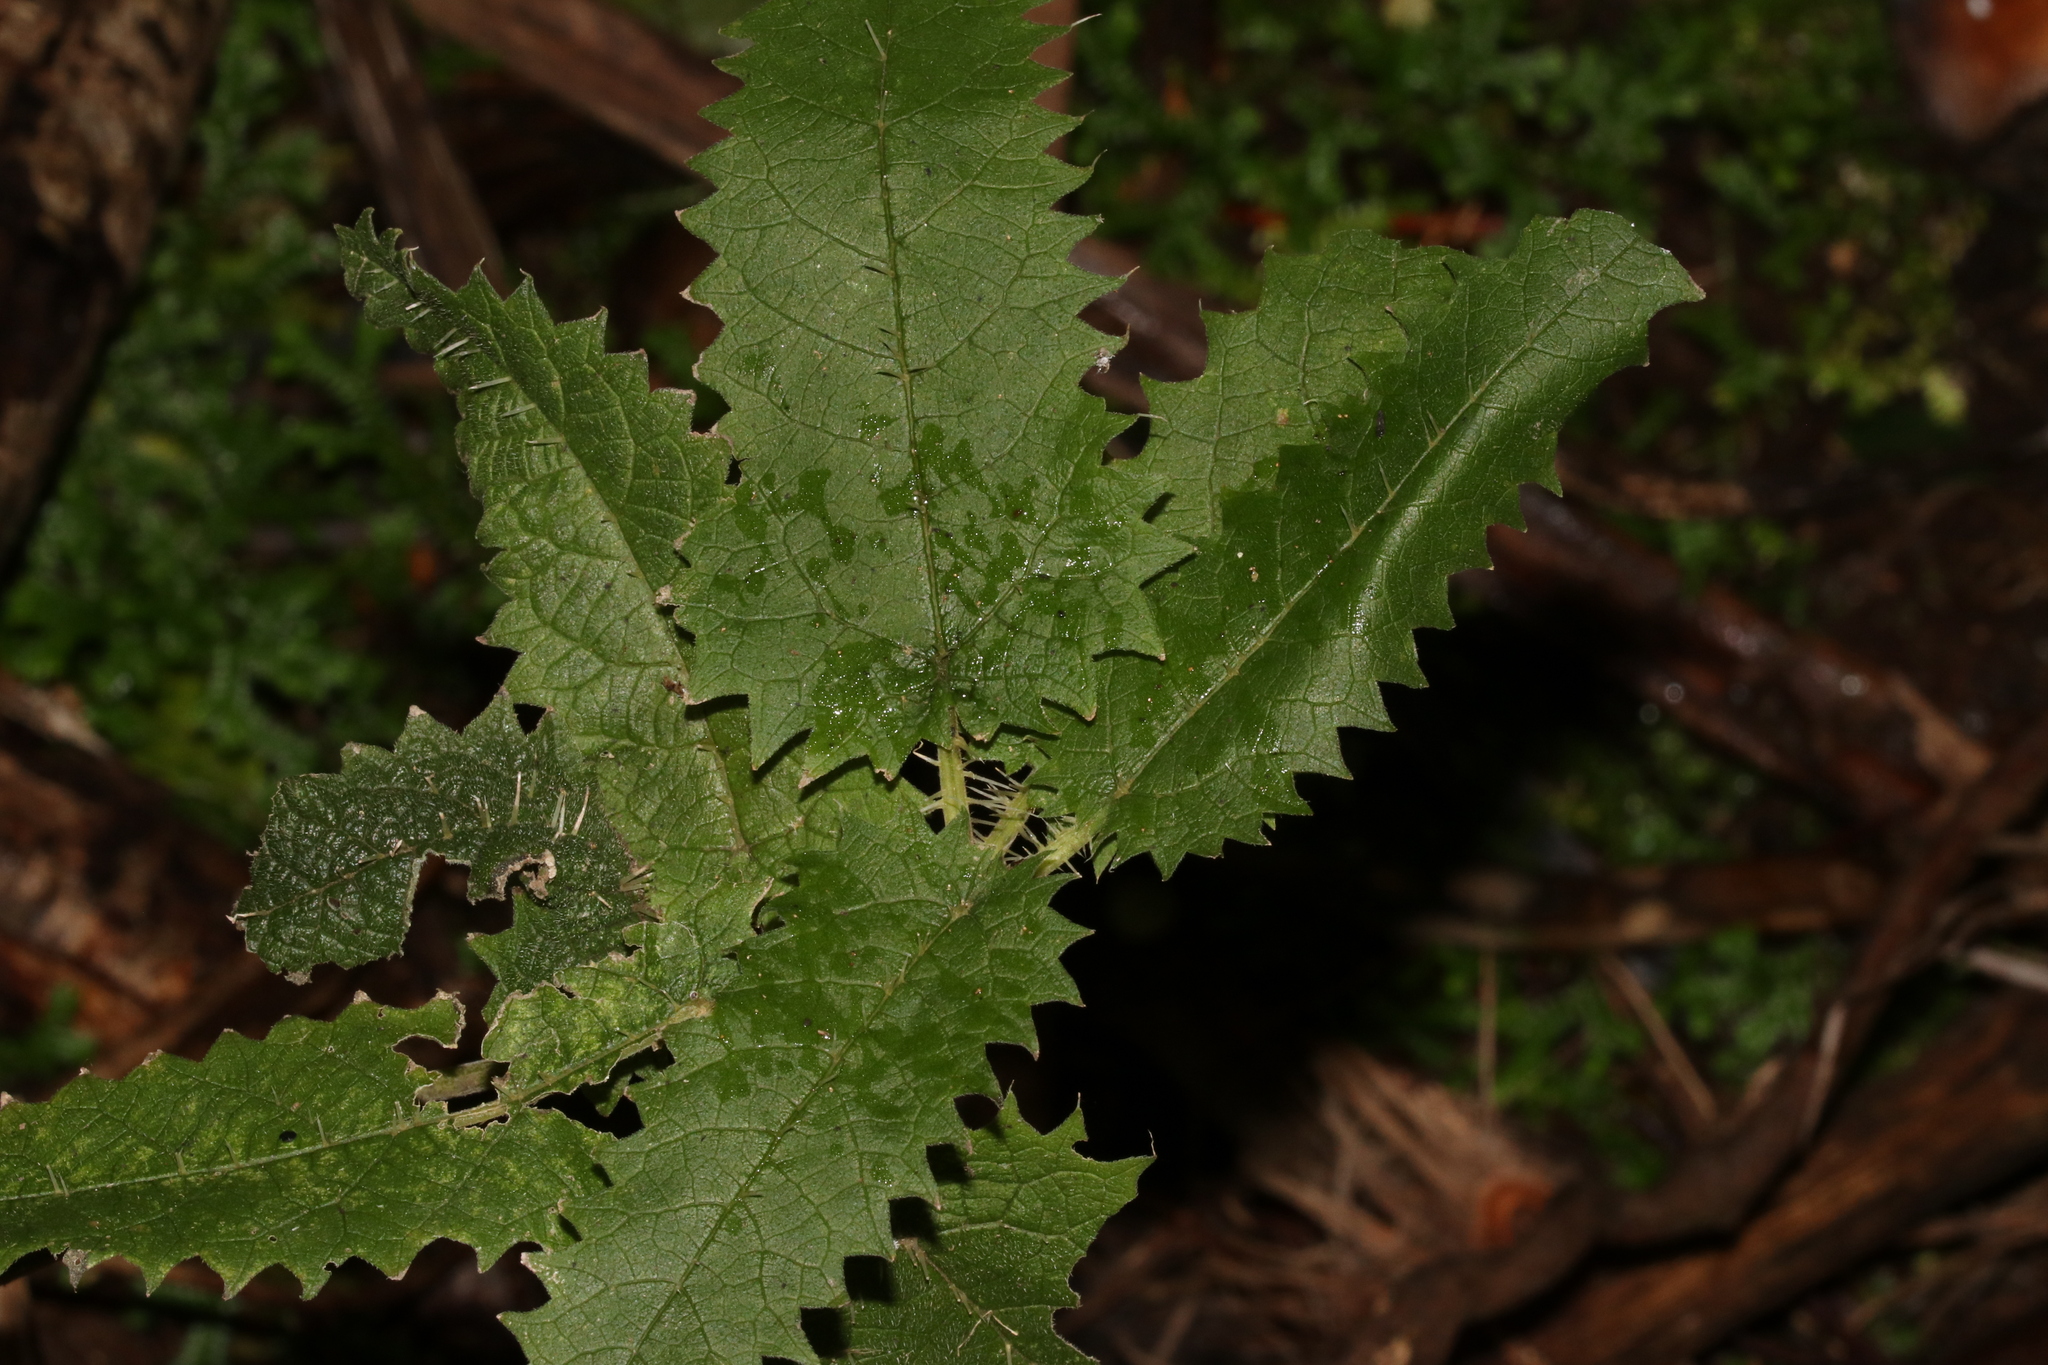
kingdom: Plantae
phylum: Tracheophyta
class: Magnoliopsida
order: Rosales
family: Urticaceae
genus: Urtica
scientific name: Urtica ferox
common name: Tree nettle
